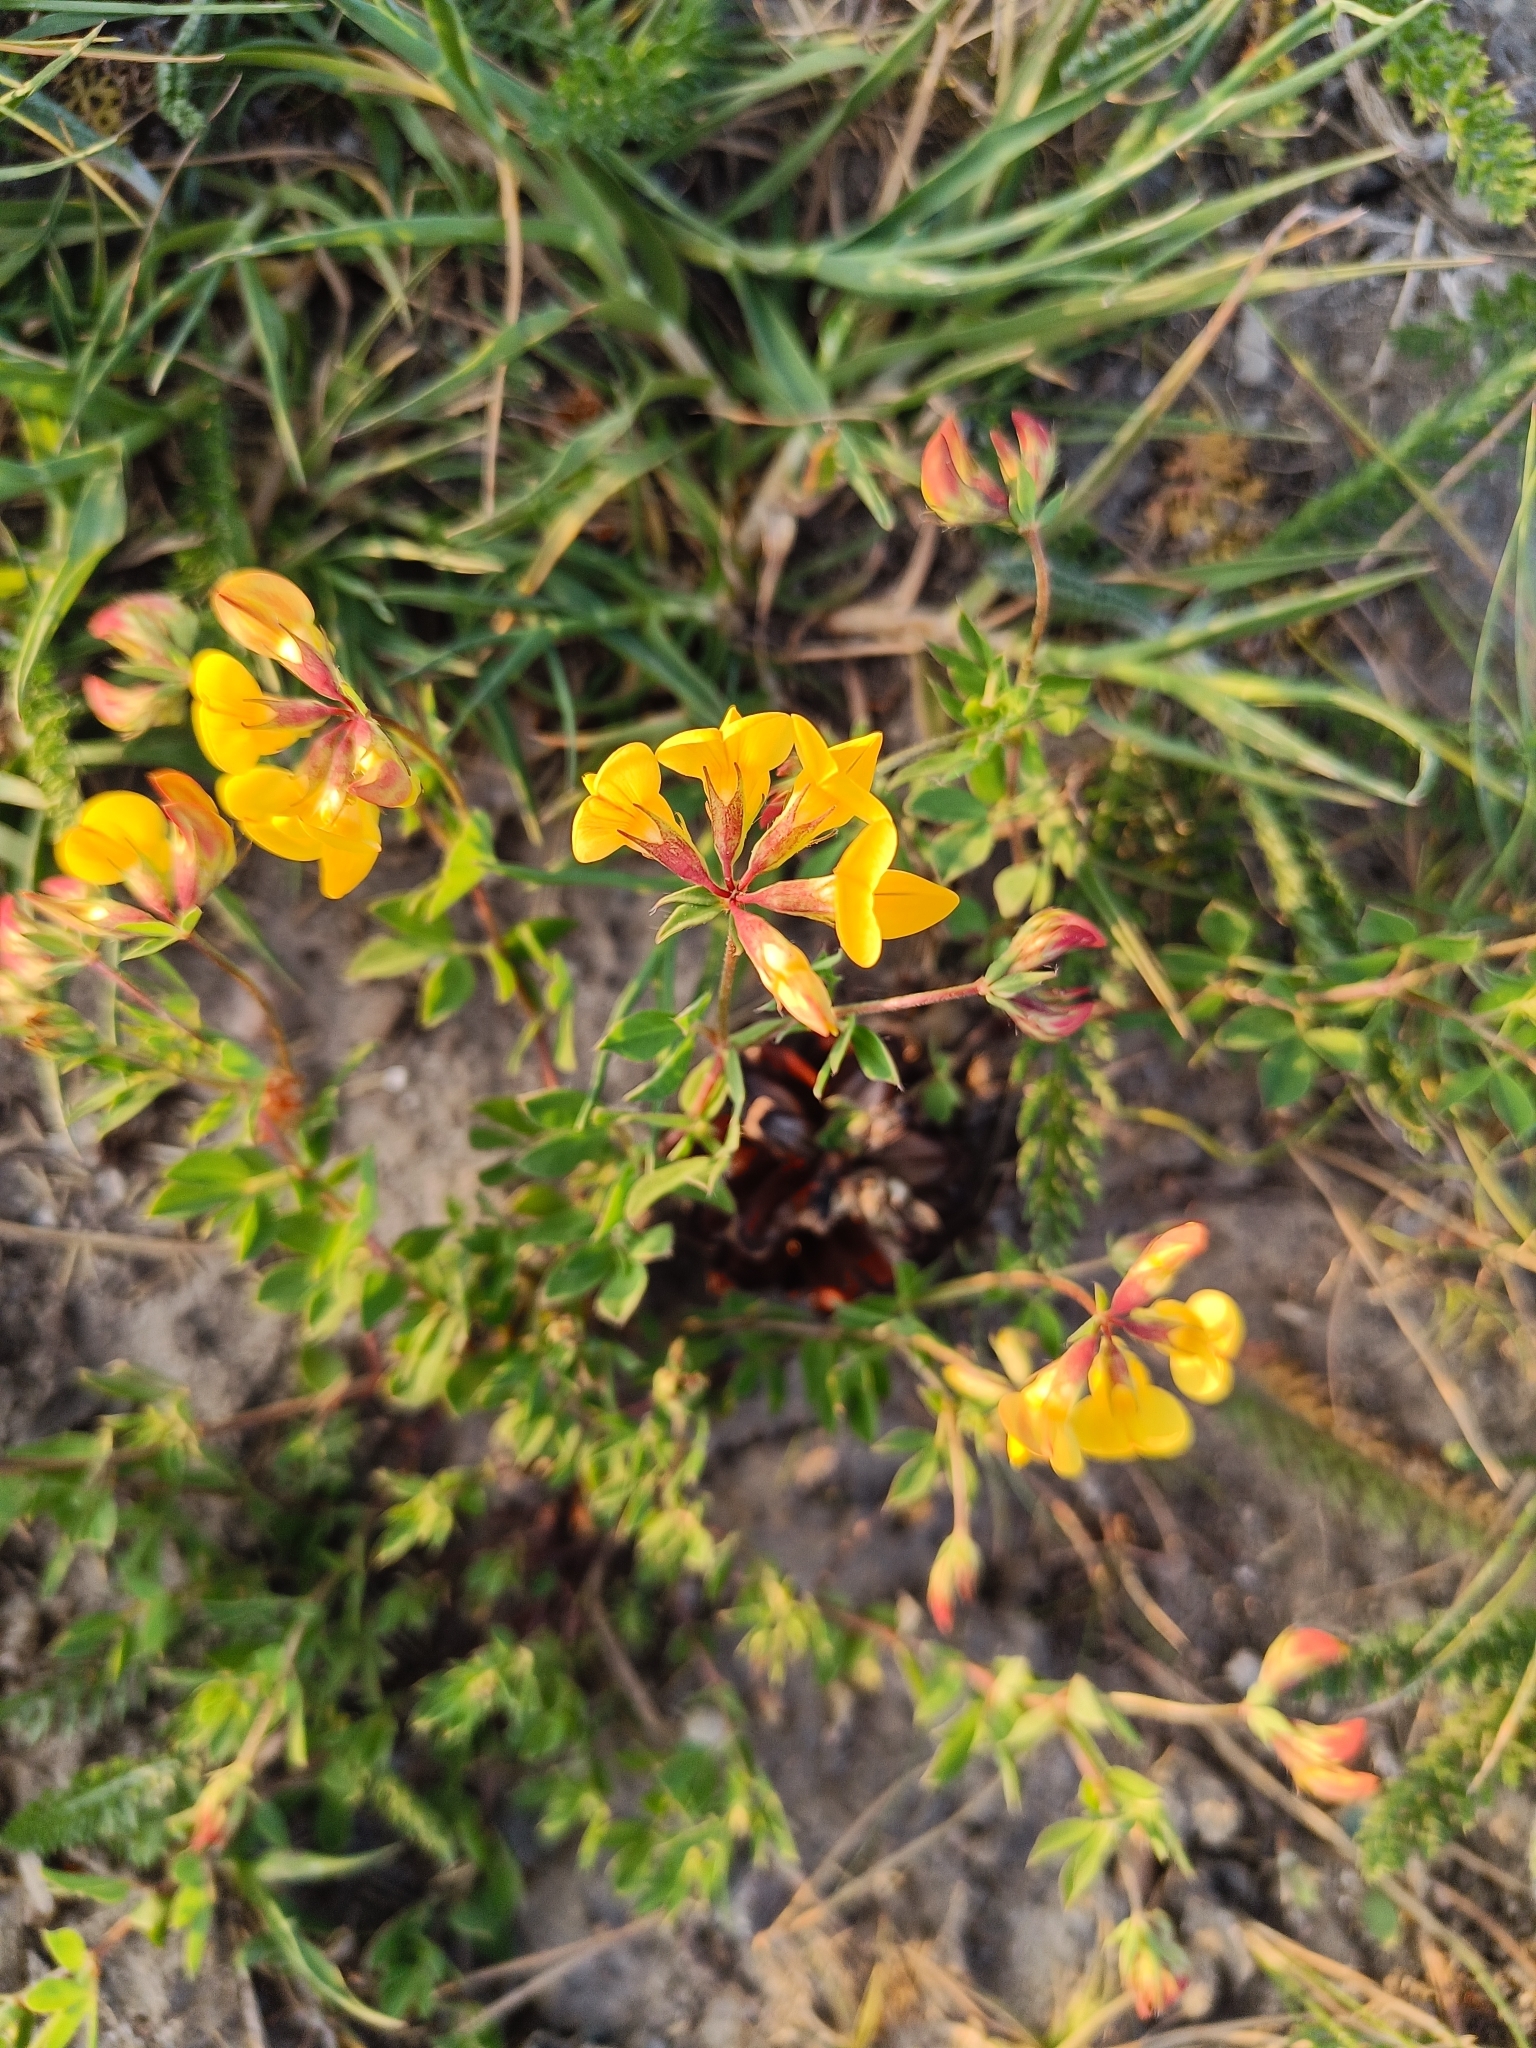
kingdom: Plantae
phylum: Tracheophyta
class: Magnoliopsida
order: Fabales
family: Fabaceae
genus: Lotus
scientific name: Lotus corniculatus
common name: Common bird's-foot-trefoil
